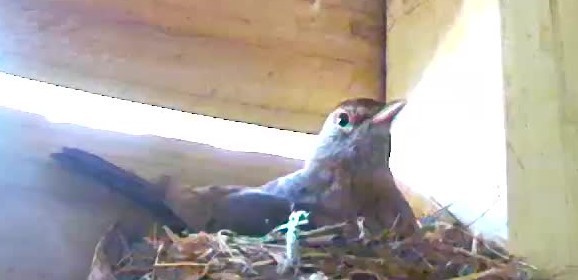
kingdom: Animalia
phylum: Chordata
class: Aves
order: Passeriformes
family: Turdidae
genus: Turdus
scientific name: Turdus merula
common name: Common blackbird
